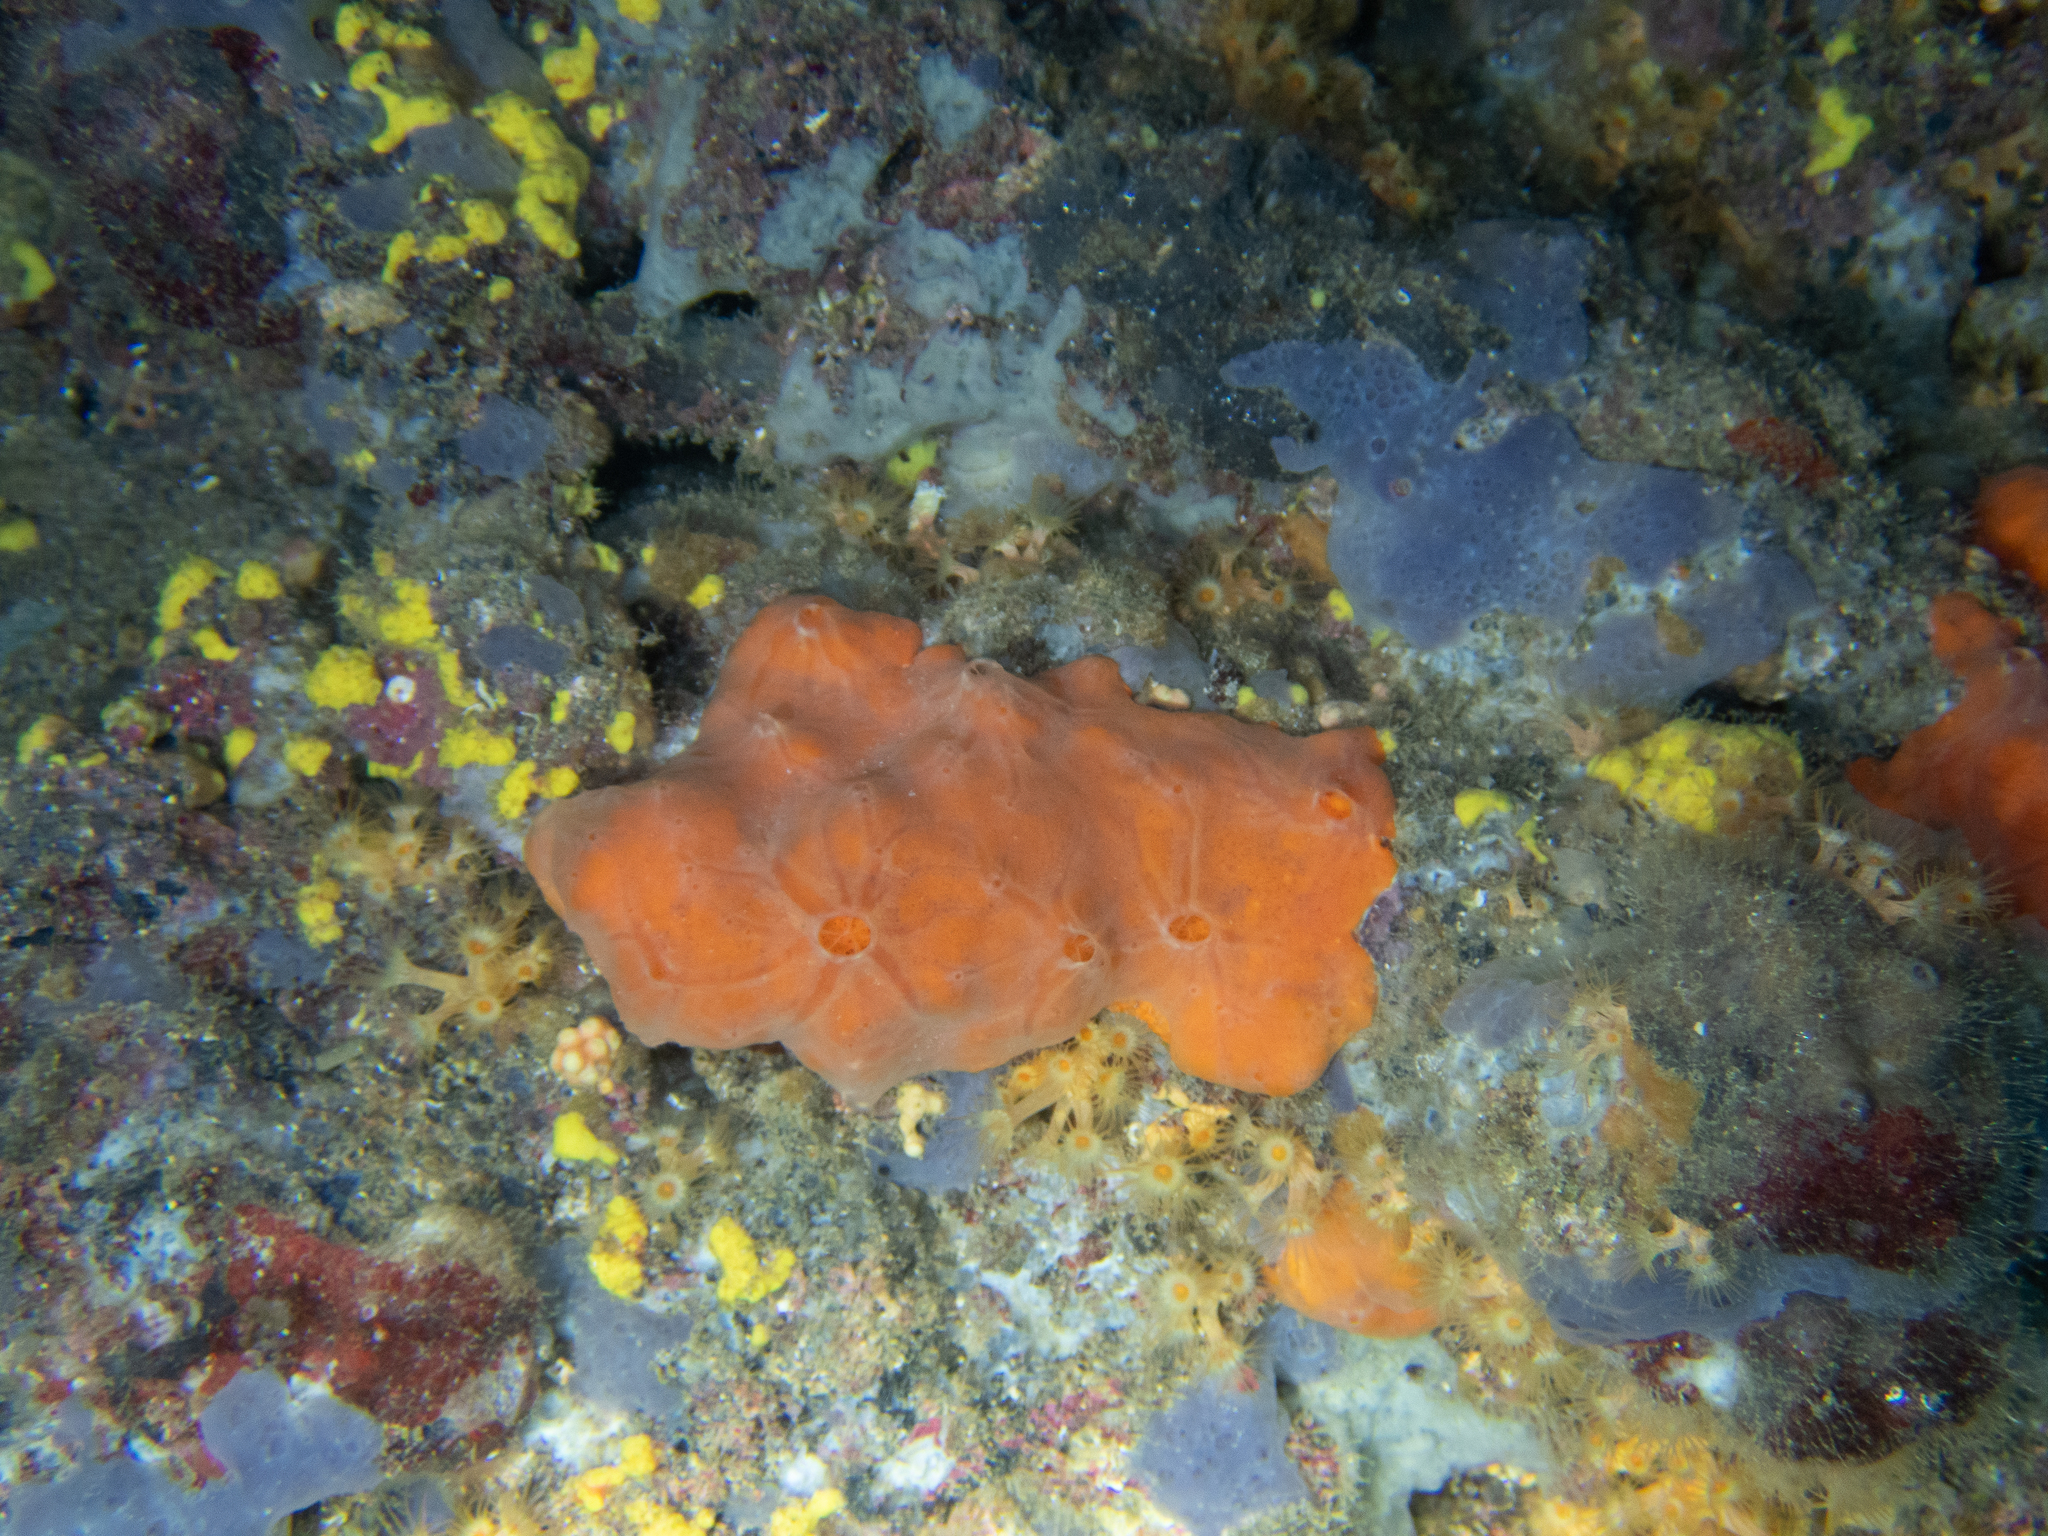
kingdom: Animalia
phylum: Porifera
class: Demospongiae
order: Clionaida
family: Spirastrellidae
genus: Spirastrella
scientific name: Spirastrella cunctatrix
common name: Encrusting orange sponge
